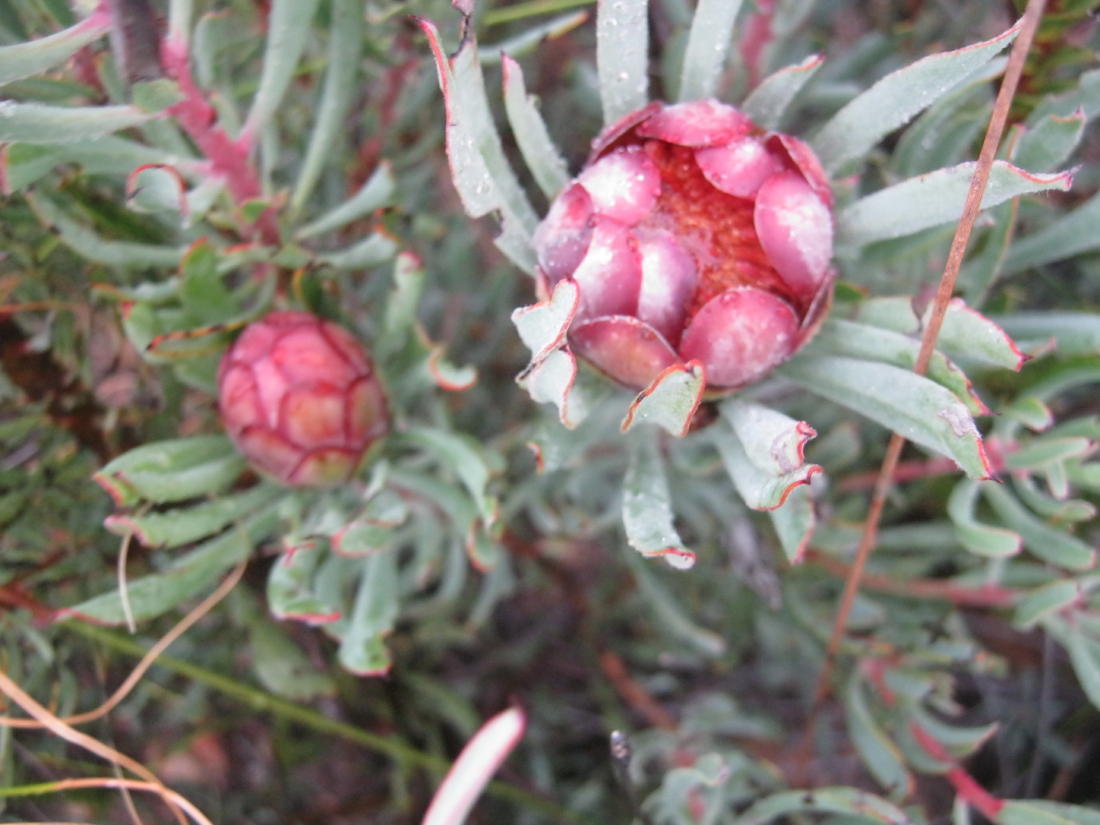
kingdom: Plantae
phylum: Tracheophyta
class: Magnoliopsida
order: Proteales
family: Proteaceae
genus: Protea
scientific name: Protea canaliculata
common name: Groove-leaf sugarbush
